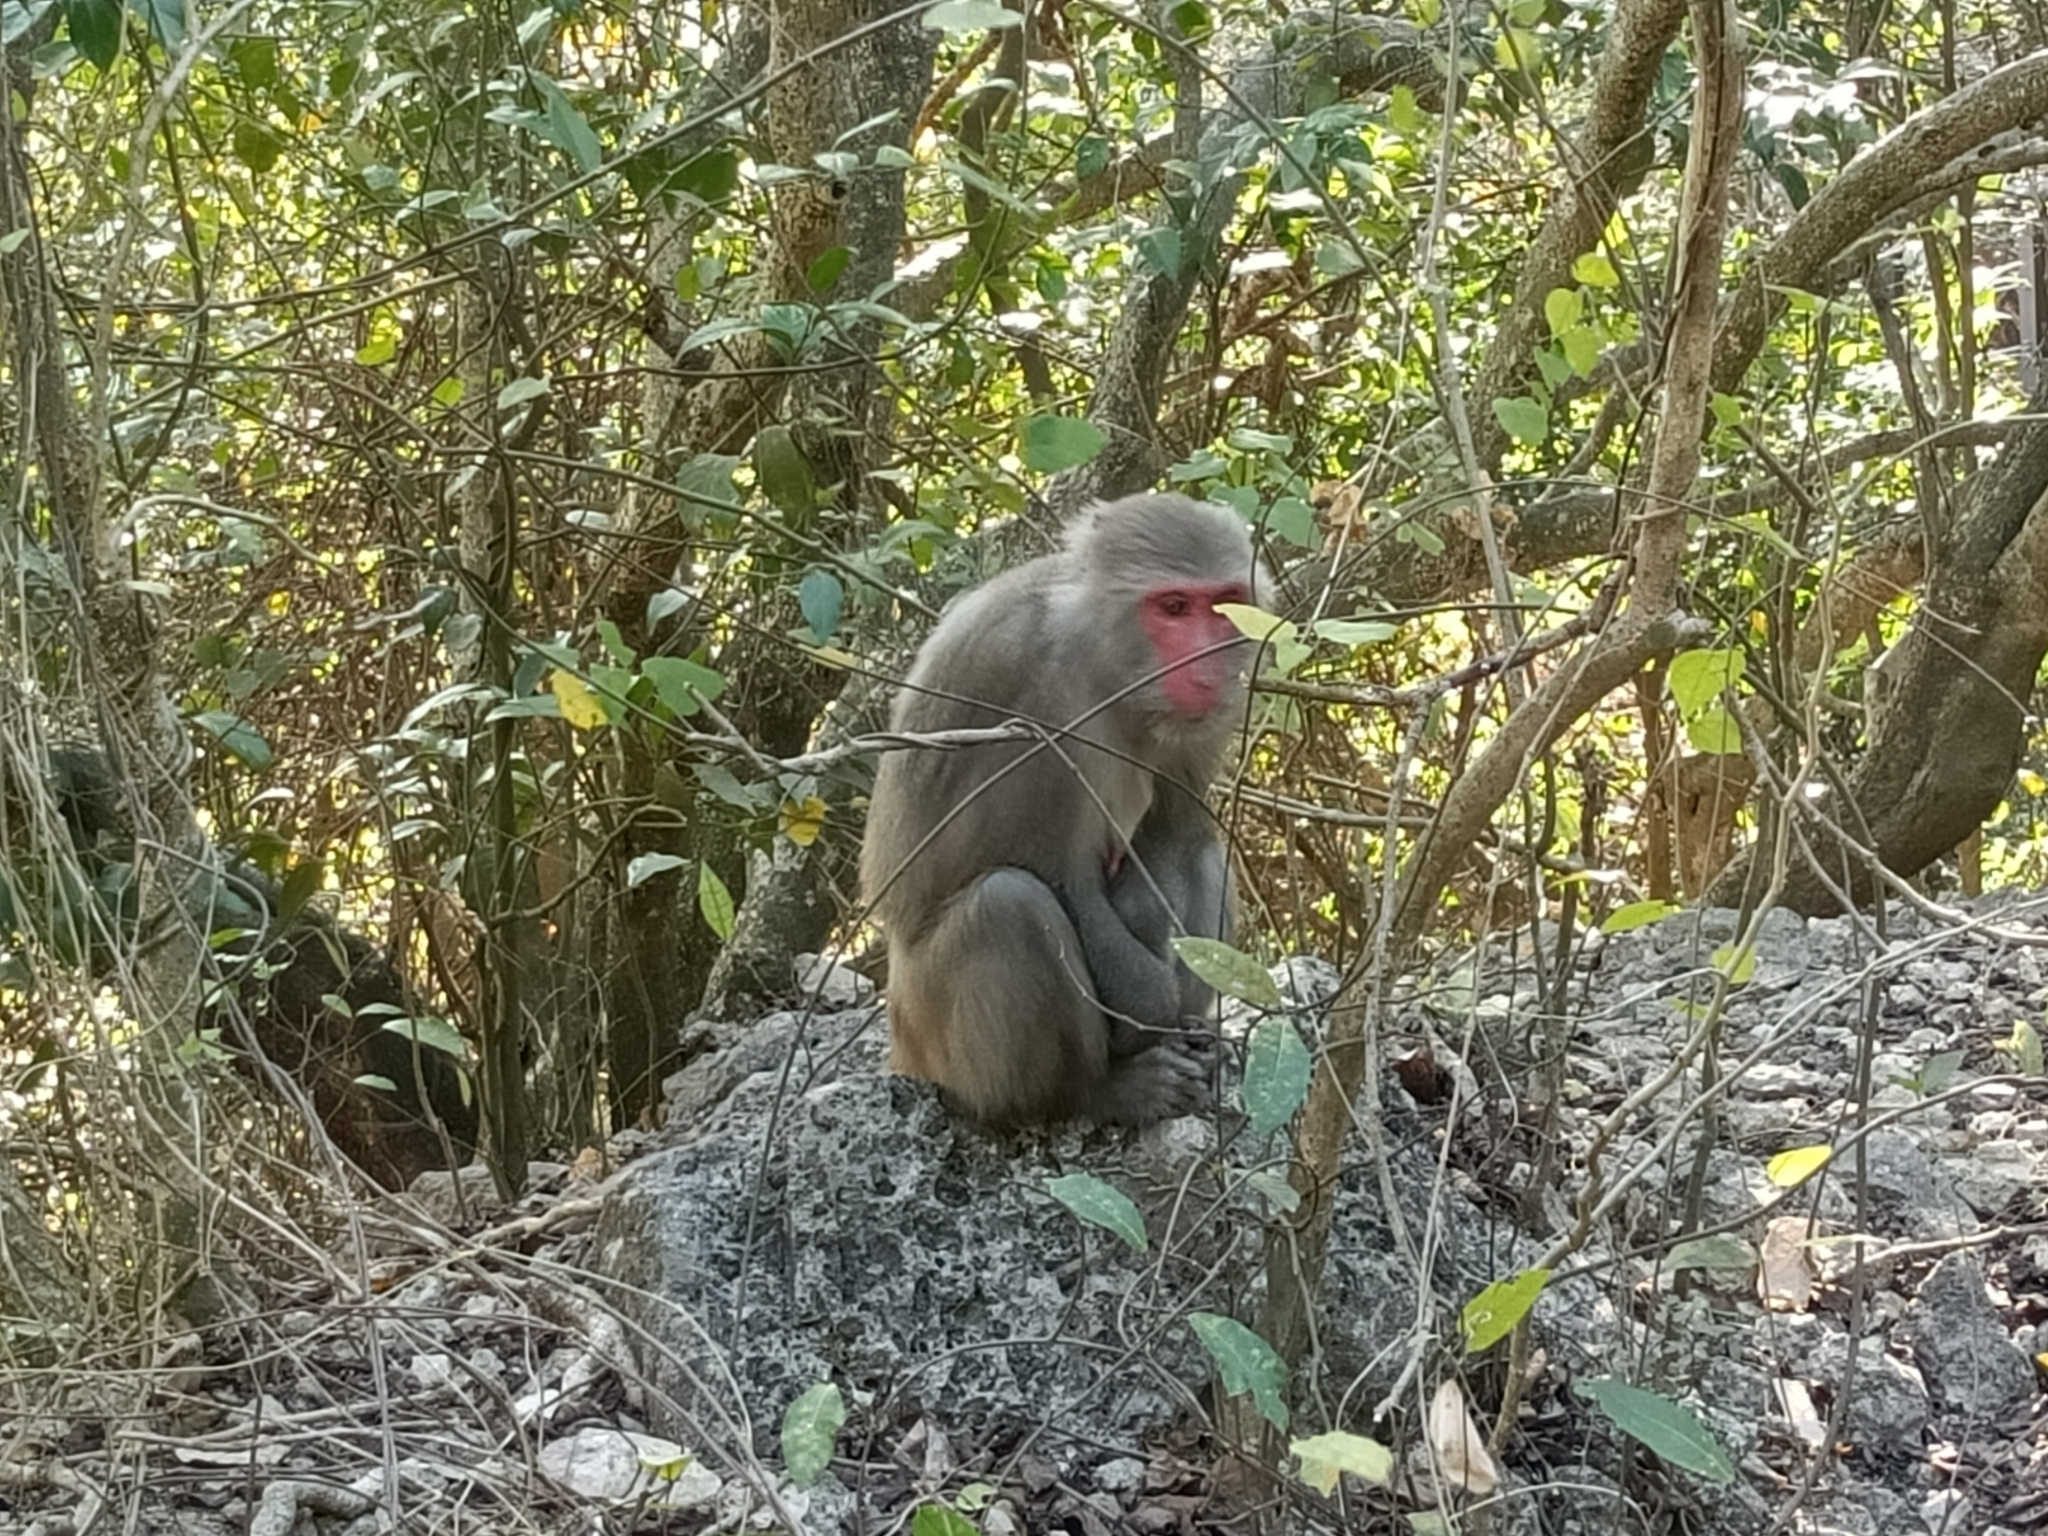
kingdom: Animalia
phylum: Chordata
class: Mammalia
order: Primates
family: Cercopithecidae
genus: Macaca
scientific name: Macaca cyclopis
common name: Formosan rock macaque
